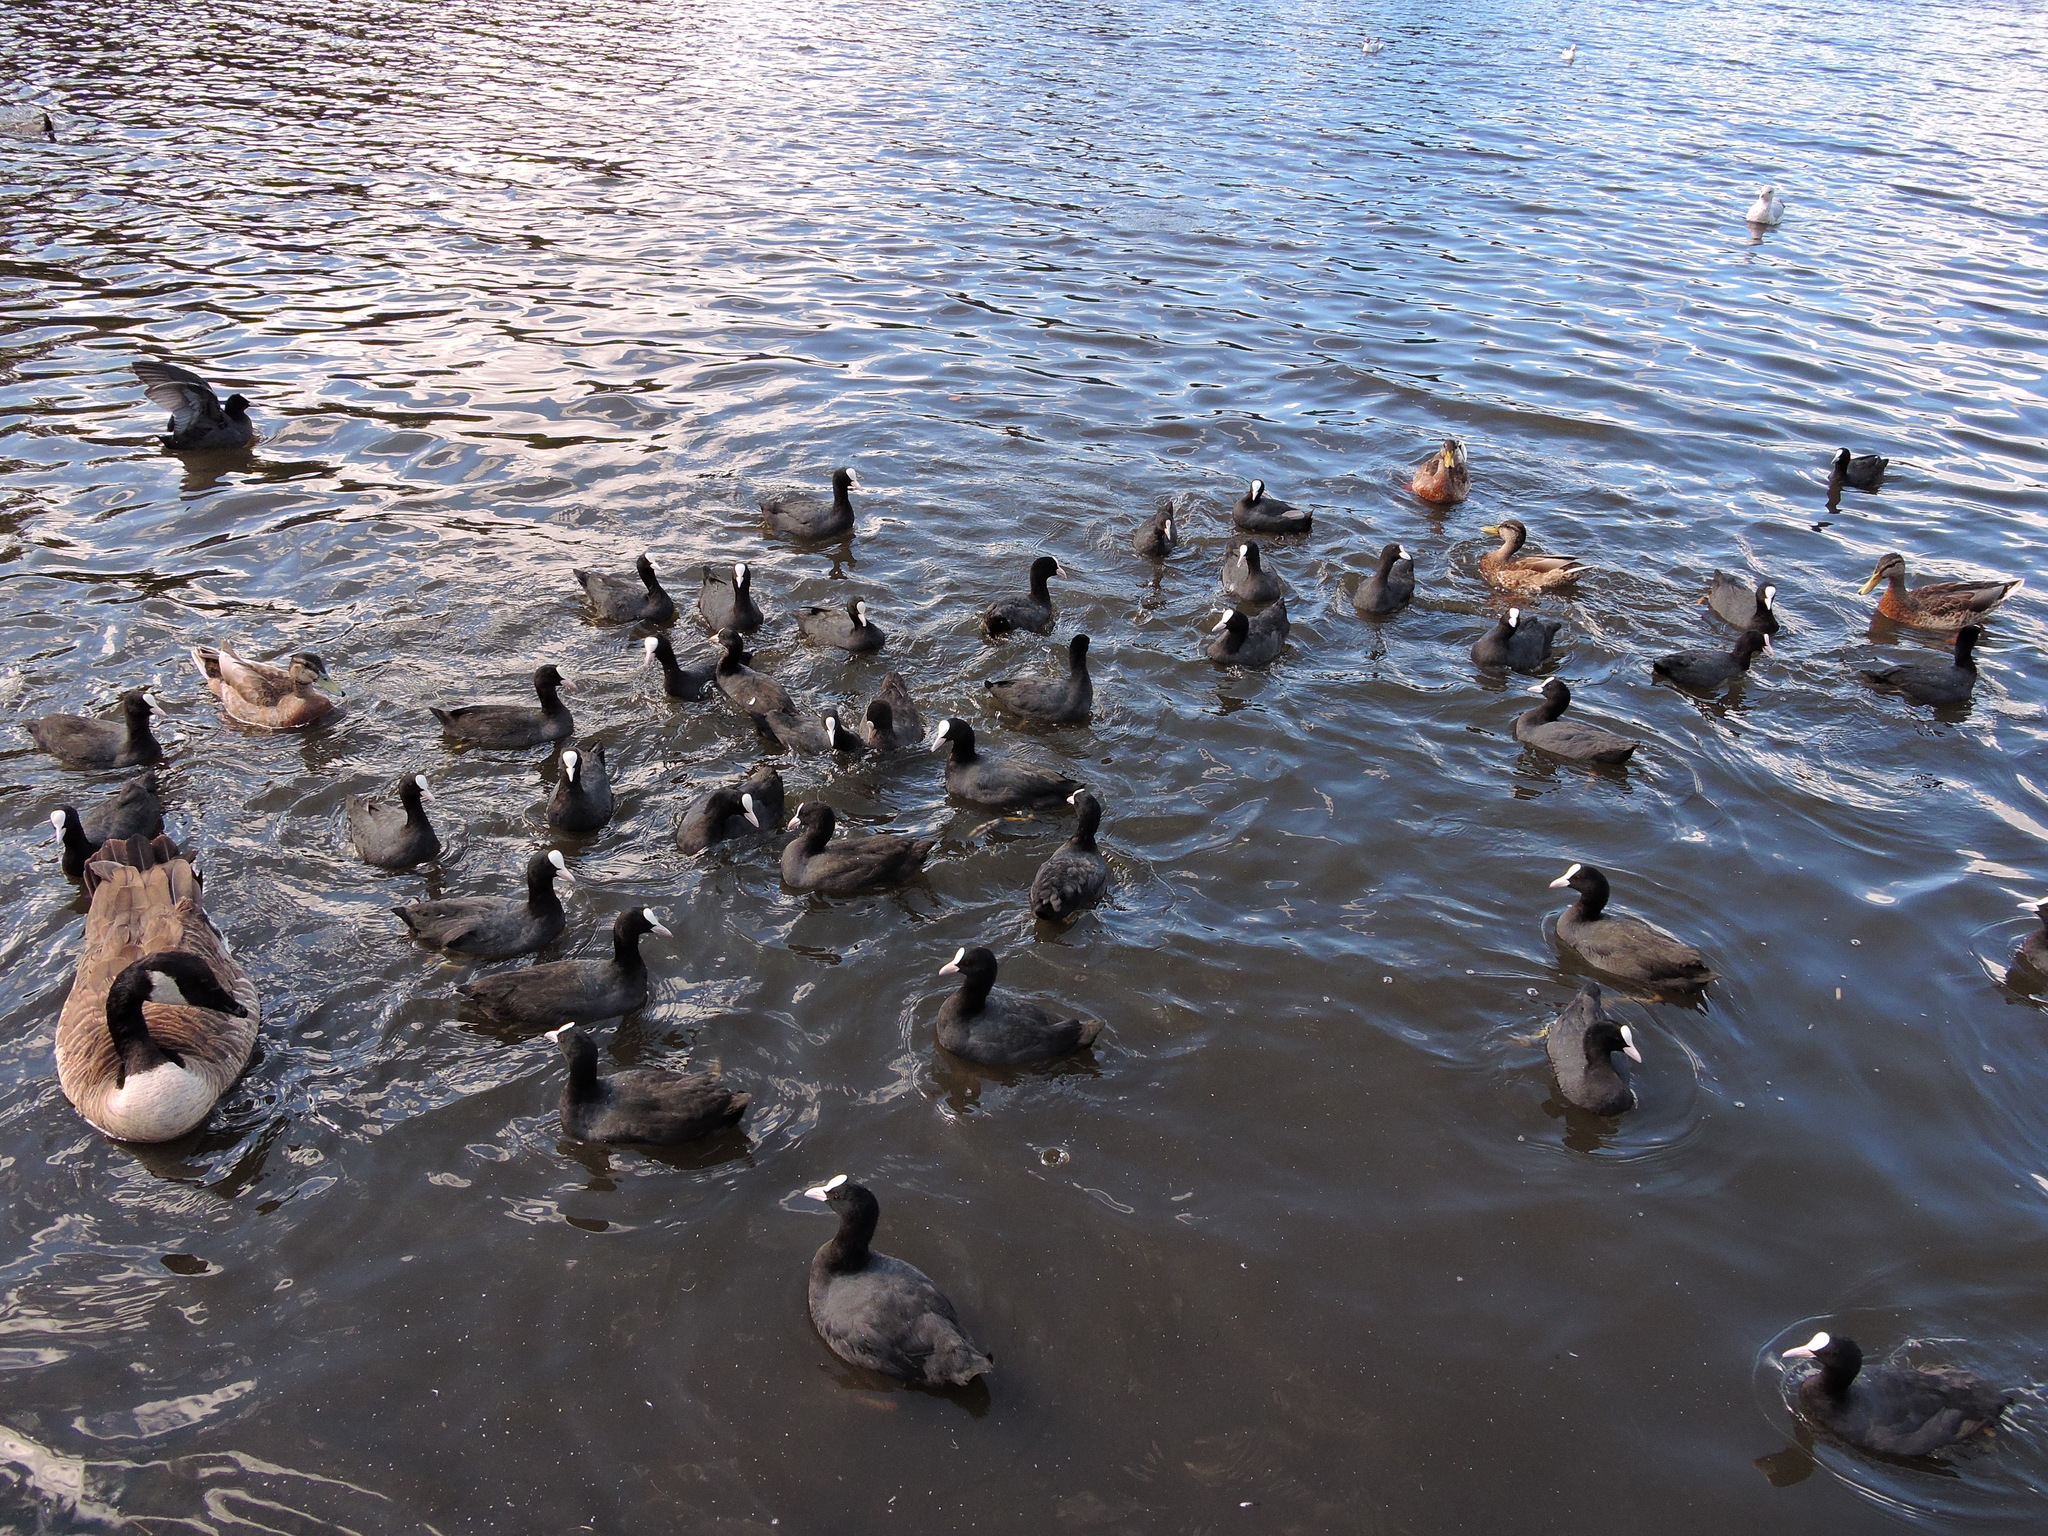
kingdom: Animalia
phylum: Chordata
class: Aves
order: Anseriformes
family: Anatidae
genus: Branta
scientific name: Branta canadensis
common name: Canada goose
